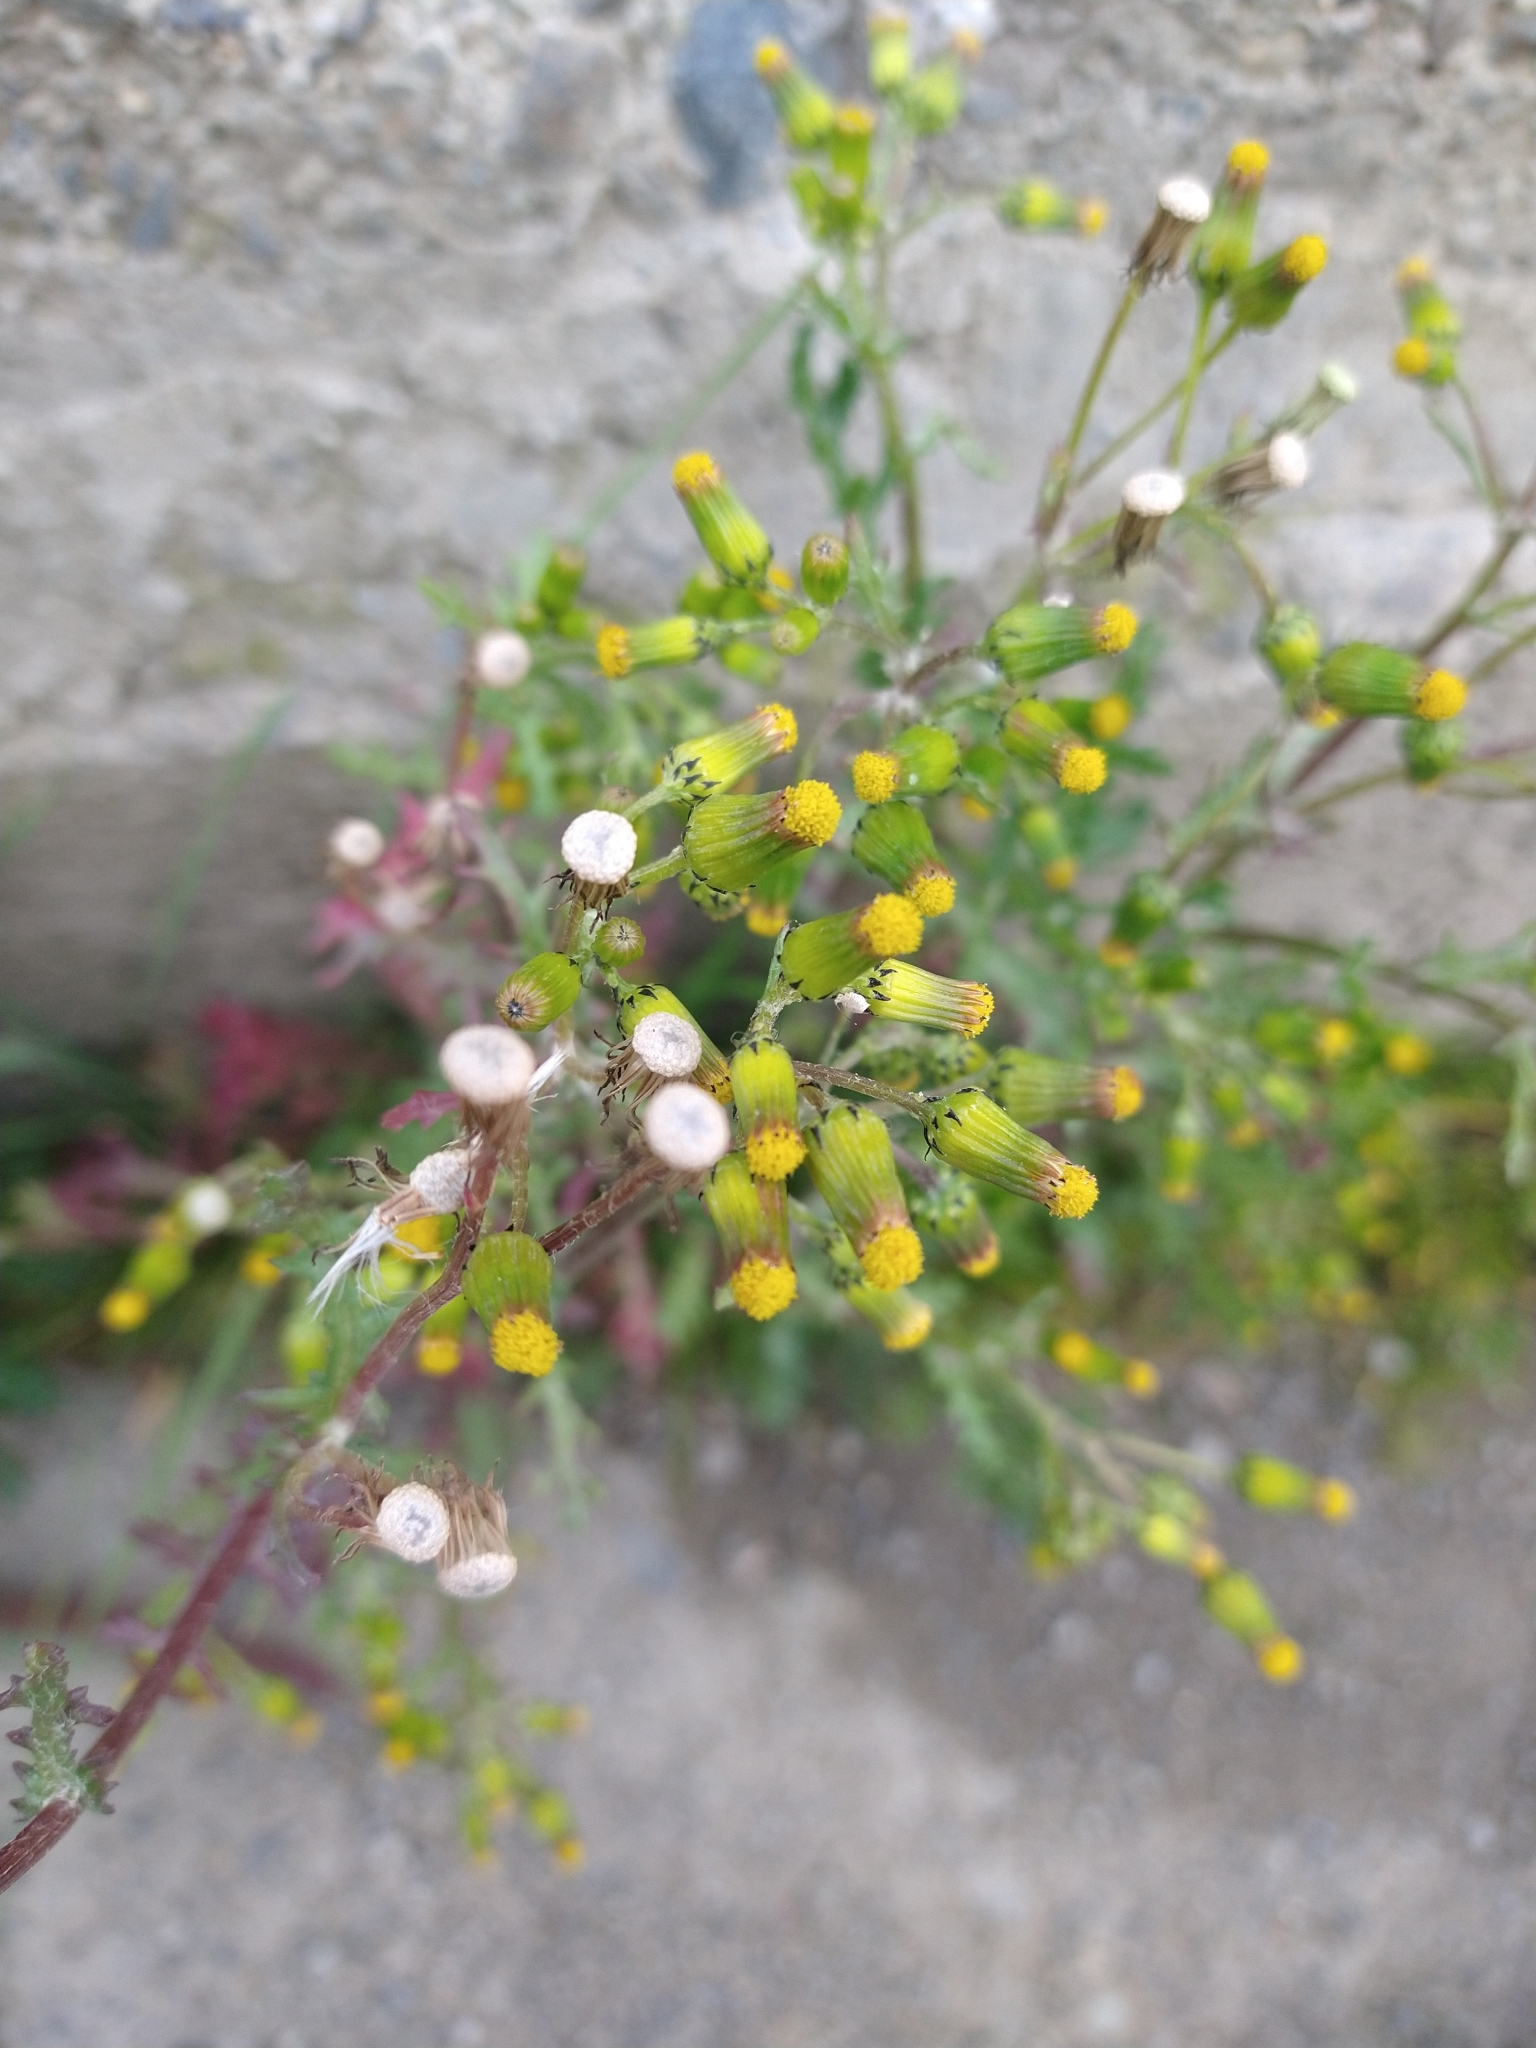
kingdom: Plantae
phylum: Tracheophyta
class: Magnoliopsida
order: Asterales
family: Asteraceae
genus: Senecio
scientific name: Senecio vulgaris
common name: Old-man-in-the-spring
